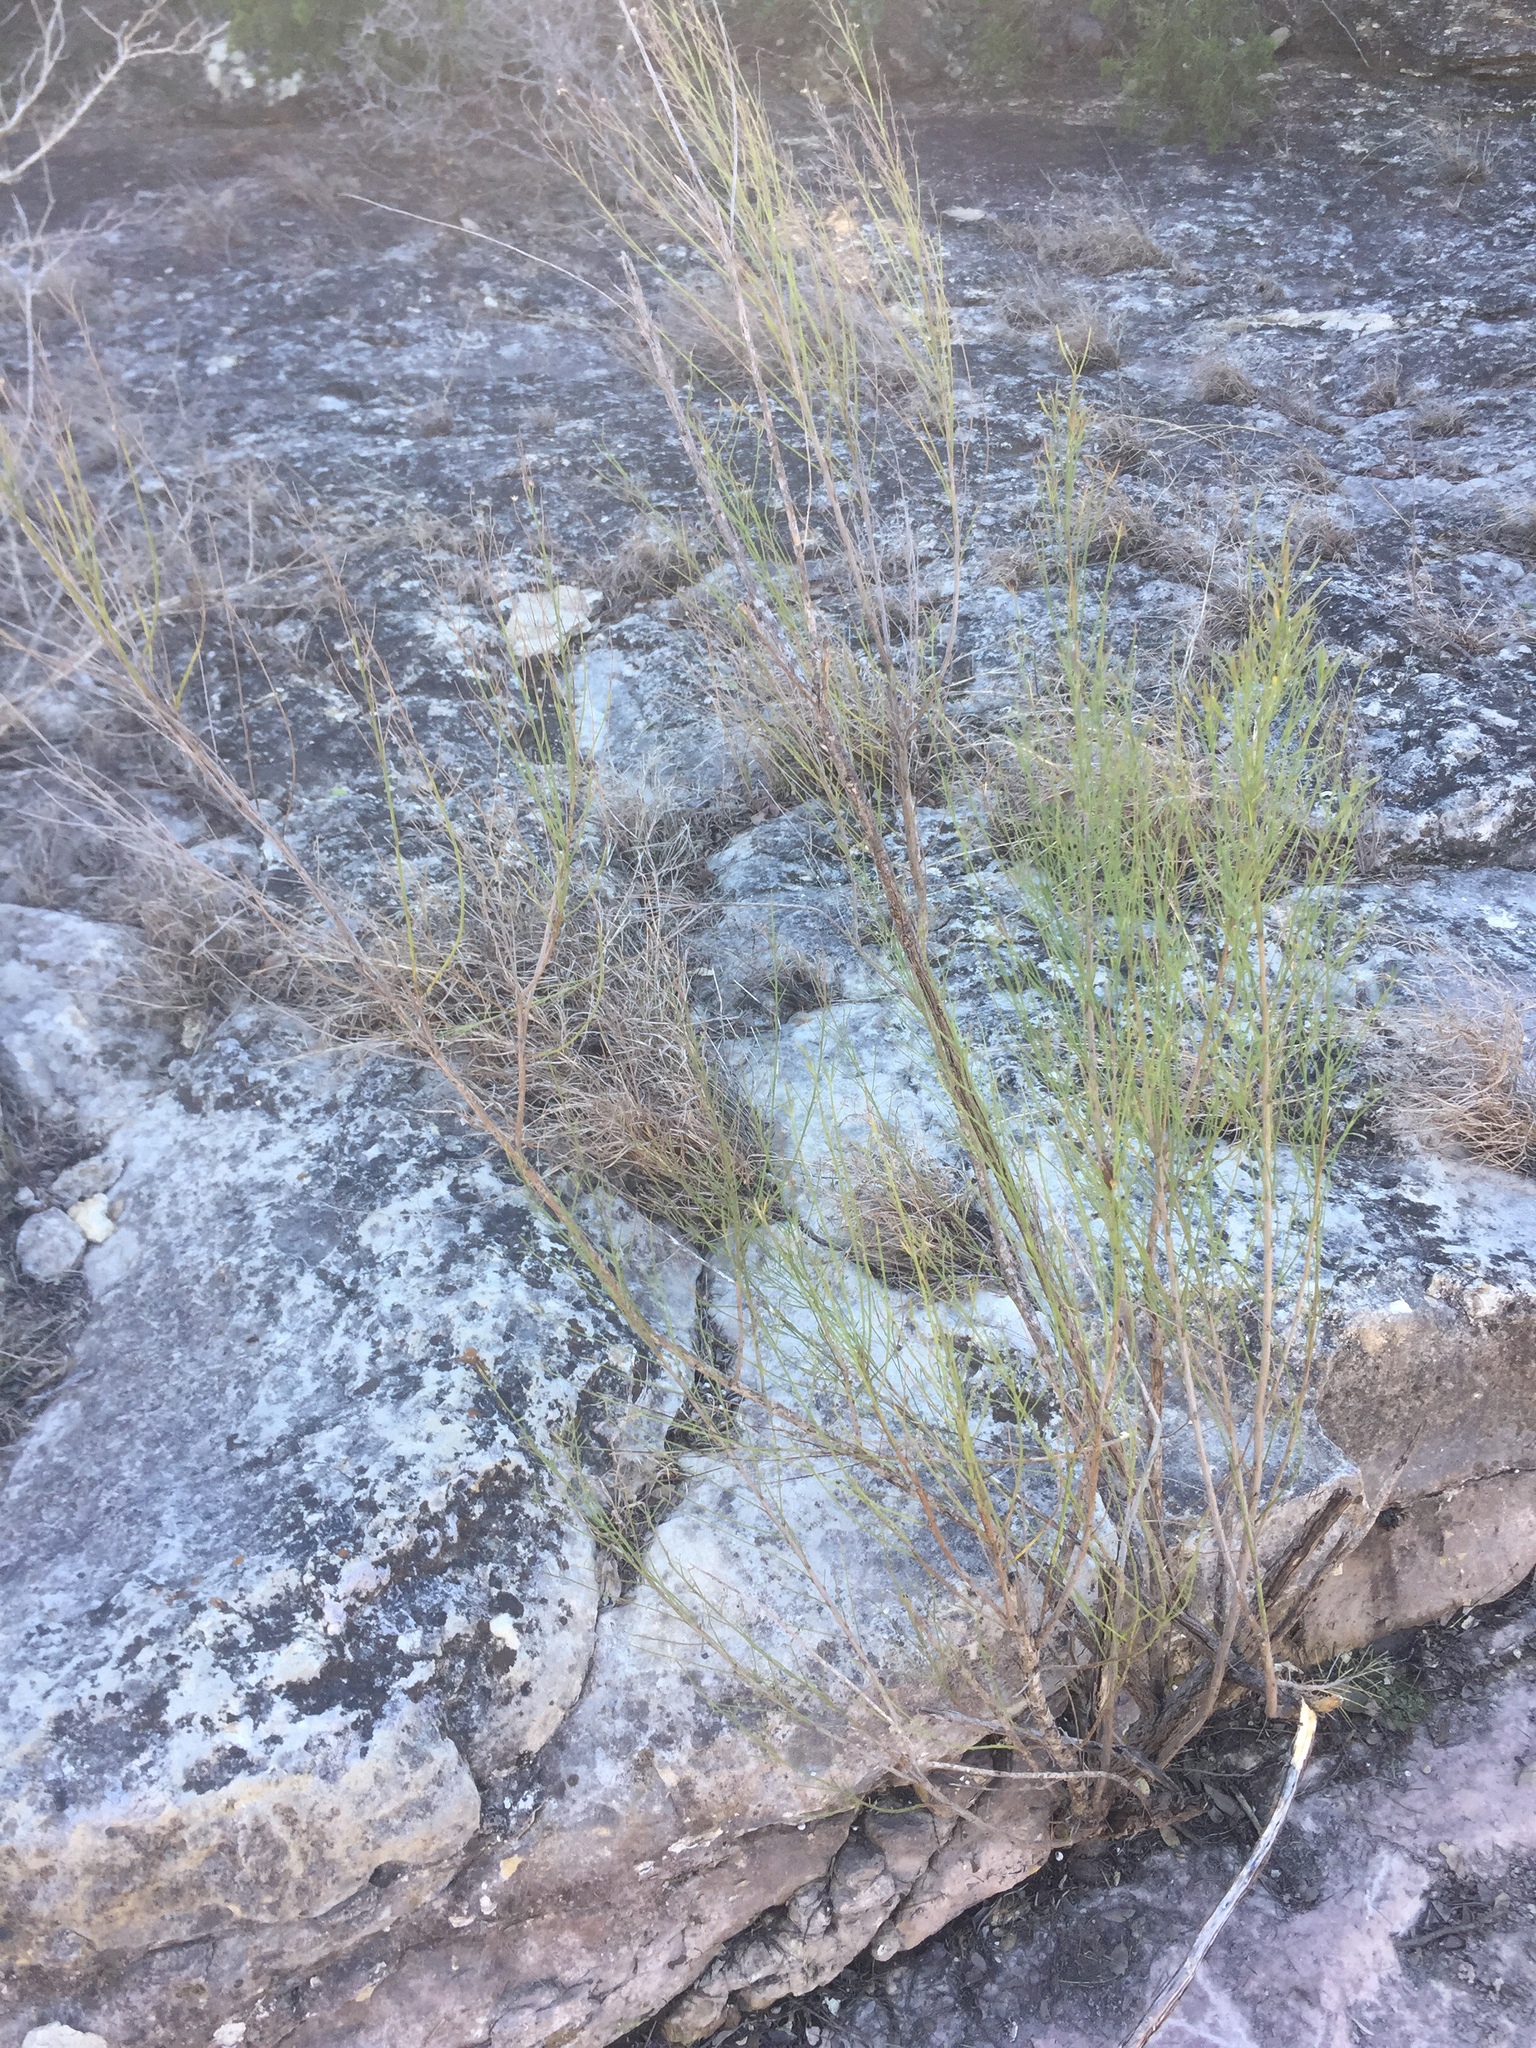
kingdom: Plantae
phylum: Tracheophyta
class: Magnoliopsida
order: Asterales
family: Asteraceae
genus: Baccharis
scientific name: Baccharis neglecta
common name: Roosevelt-weed
